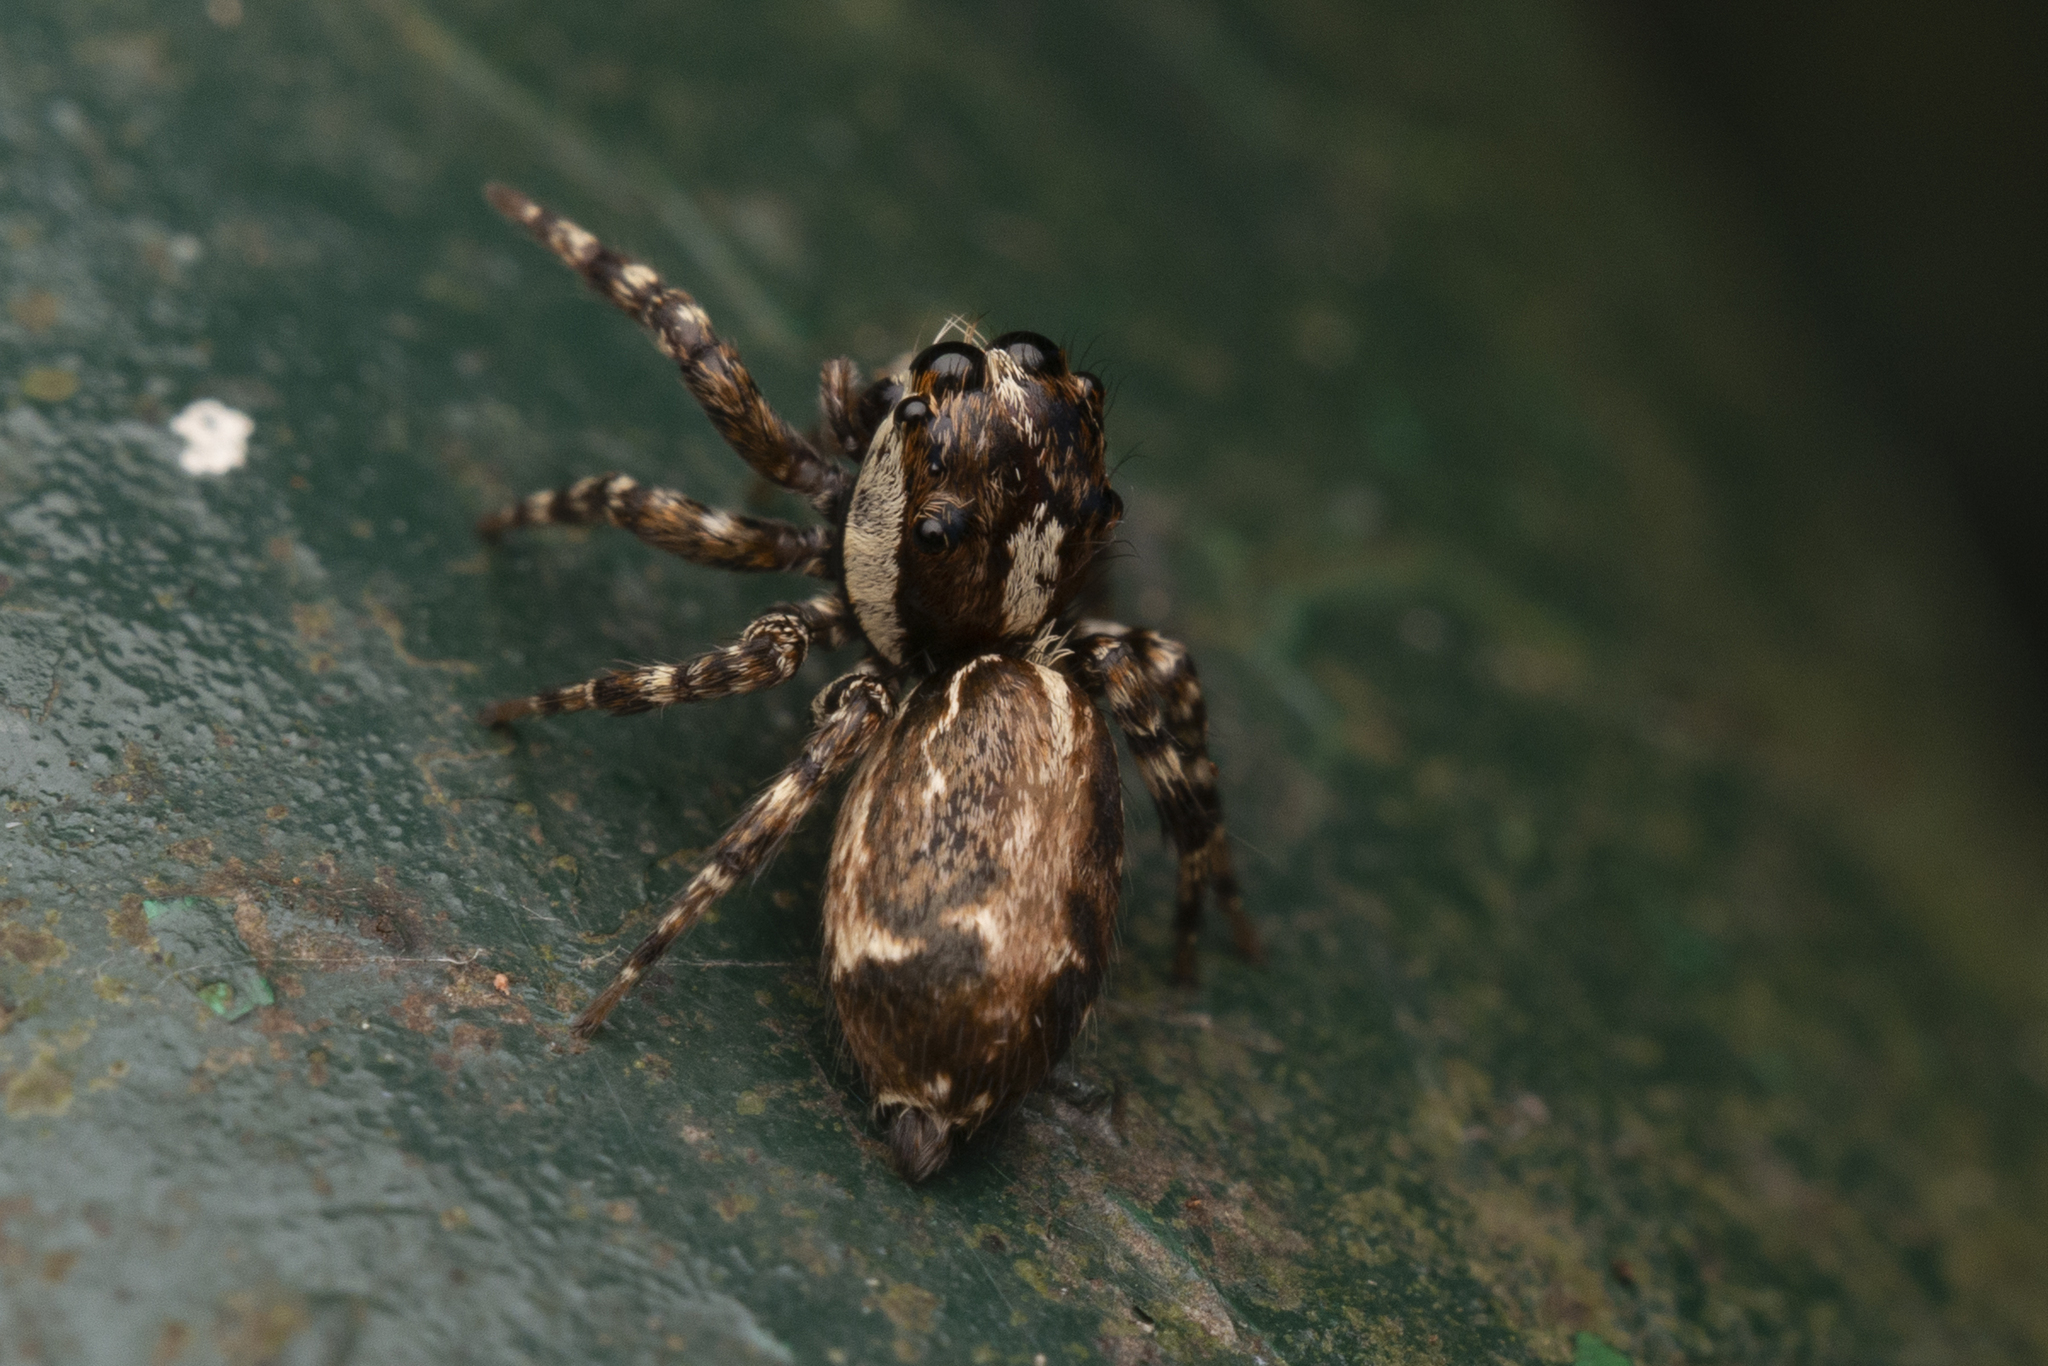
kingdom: Animalia
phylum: Arthropoda
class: Arachnida
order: Araneae
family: Salticidae
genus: Thyene
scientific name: Thyene orientalis
